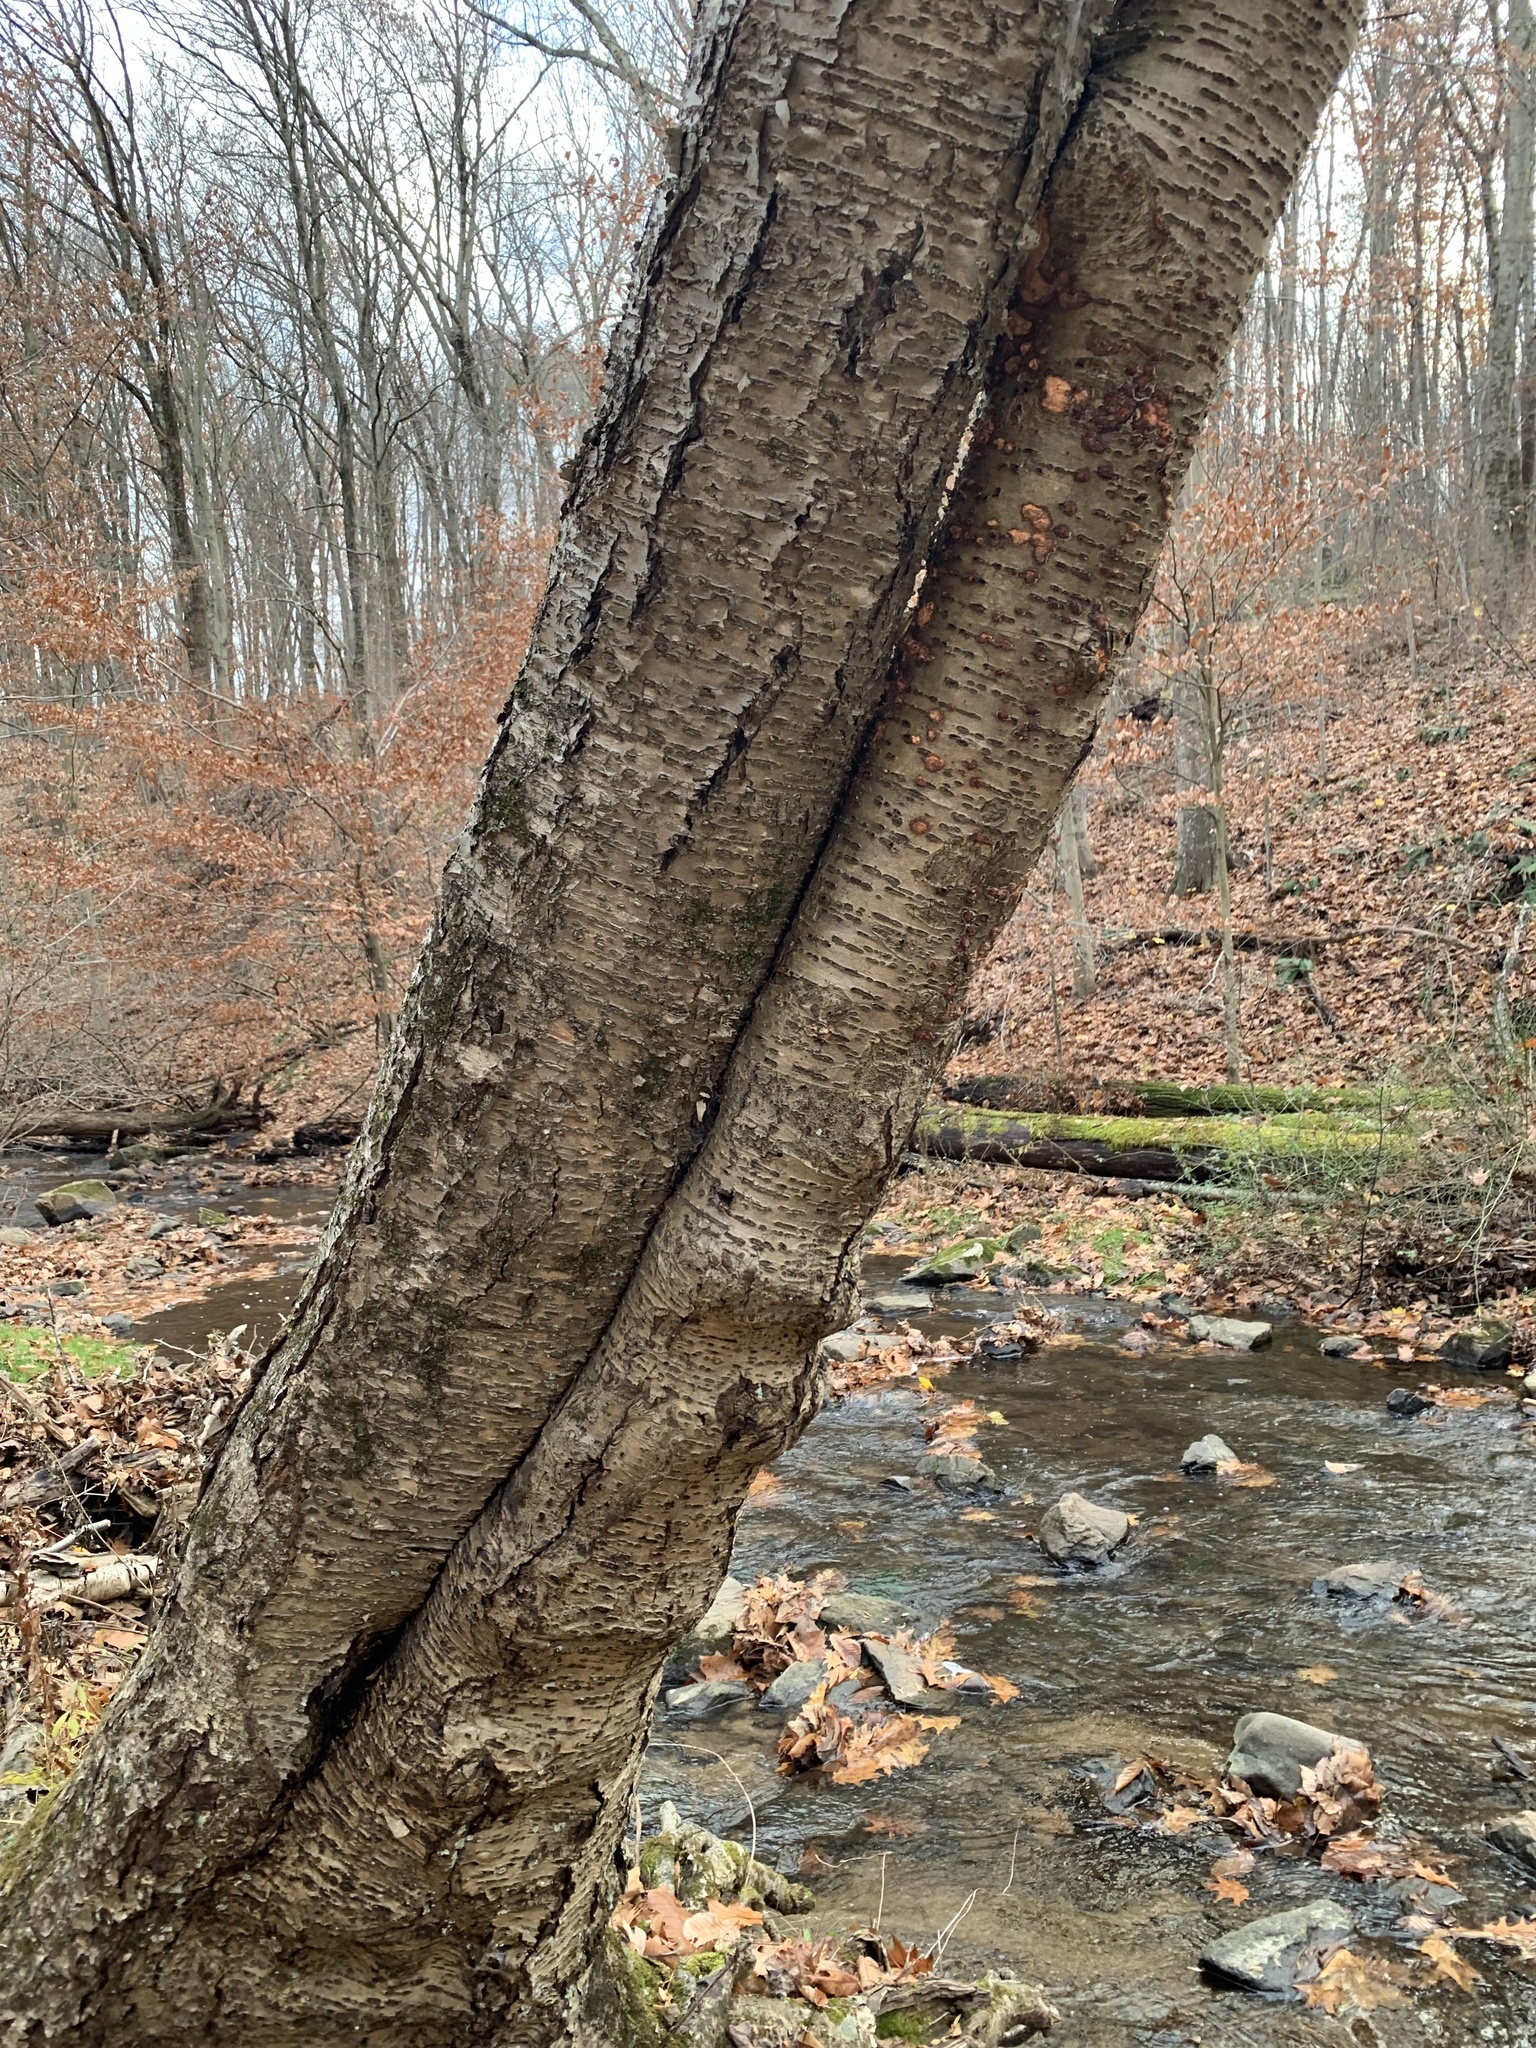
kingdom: Plantae
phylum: Tracheophyta
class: Magnoliopsida
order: Fagales
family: Betulaceae
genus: Betula
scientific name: Betula alleghaniensis
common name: Yellow birch
